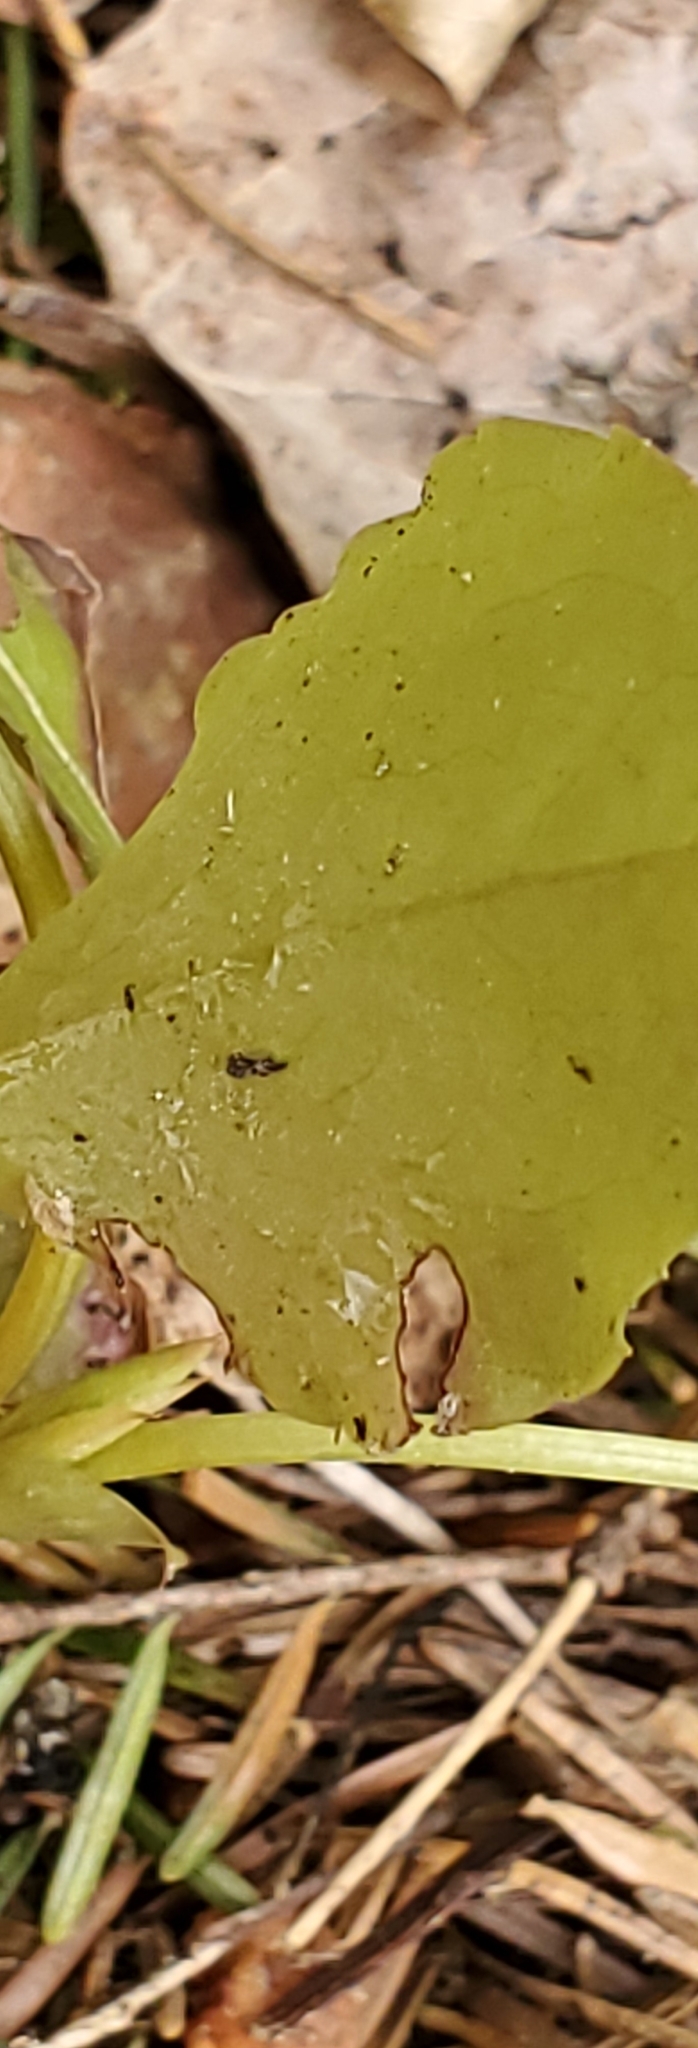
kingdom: Plantae
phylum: Tracheophyta
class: Magnoliopsida
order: Ericales
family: Ericaceae
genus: Pyrola
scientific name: Pyrola elliptica
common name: Shinleaf
